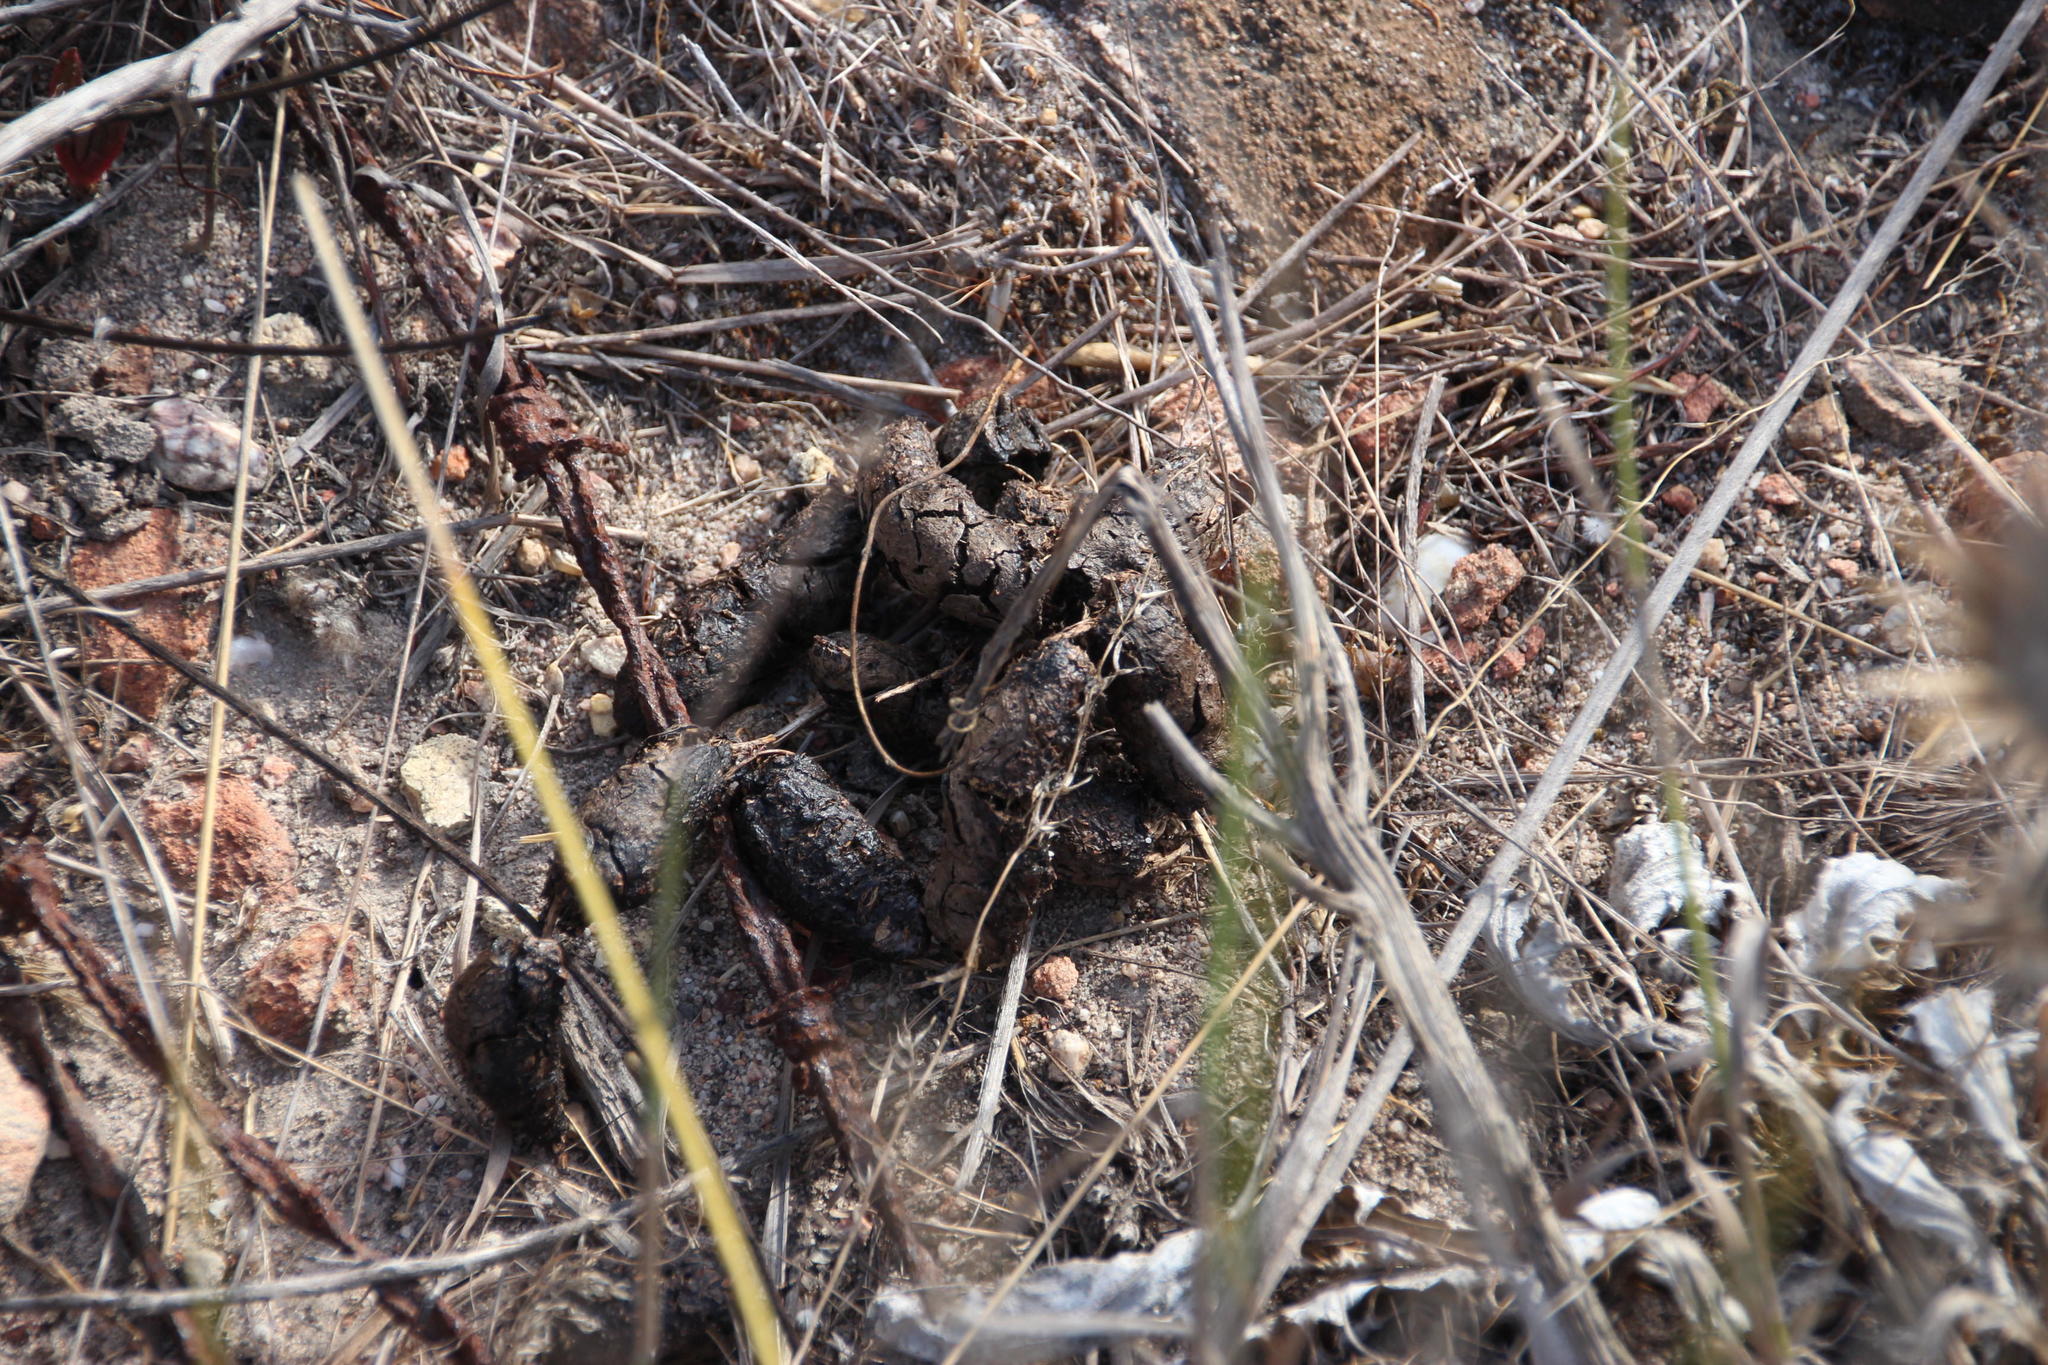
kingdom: Animalia
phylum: Chordata
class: Mammalia
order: Rodentia
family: Hystricidae
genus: Hystrix
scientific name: Hystrix africaeaustralis
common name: Cape porcupine
